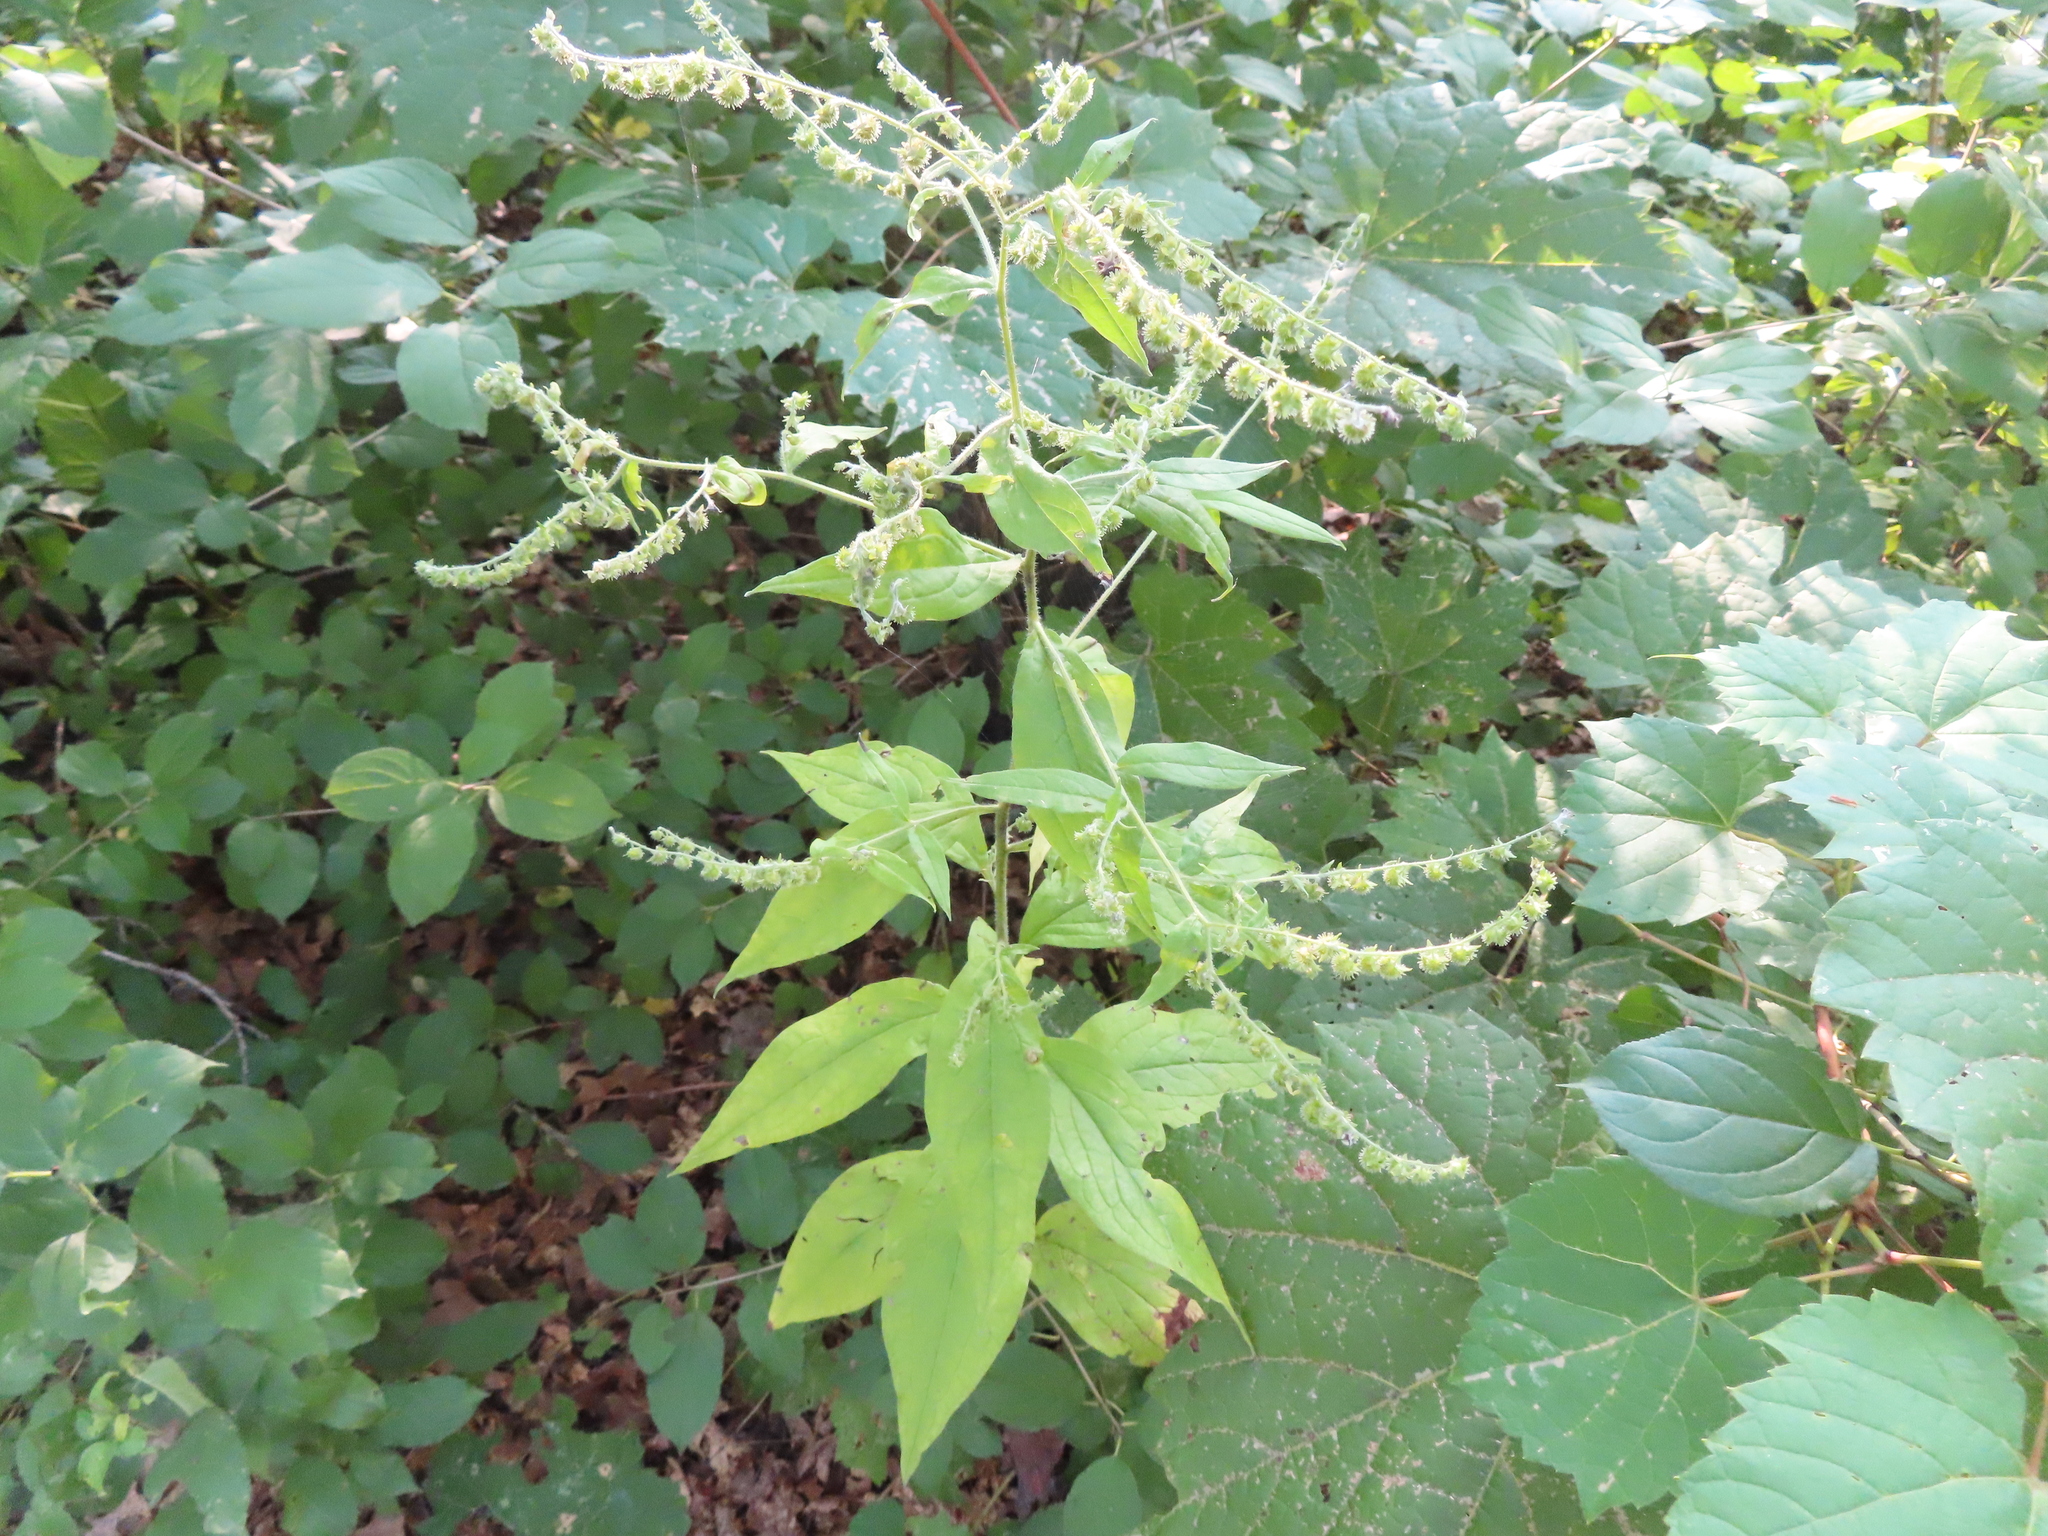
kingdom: Plantae
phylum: Tracheophyta
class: Magnoliopsida
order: Boraginales
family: Boraginaceae
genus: Hackelia
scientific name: Hackelia virginiana
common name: Beggar's-lice
